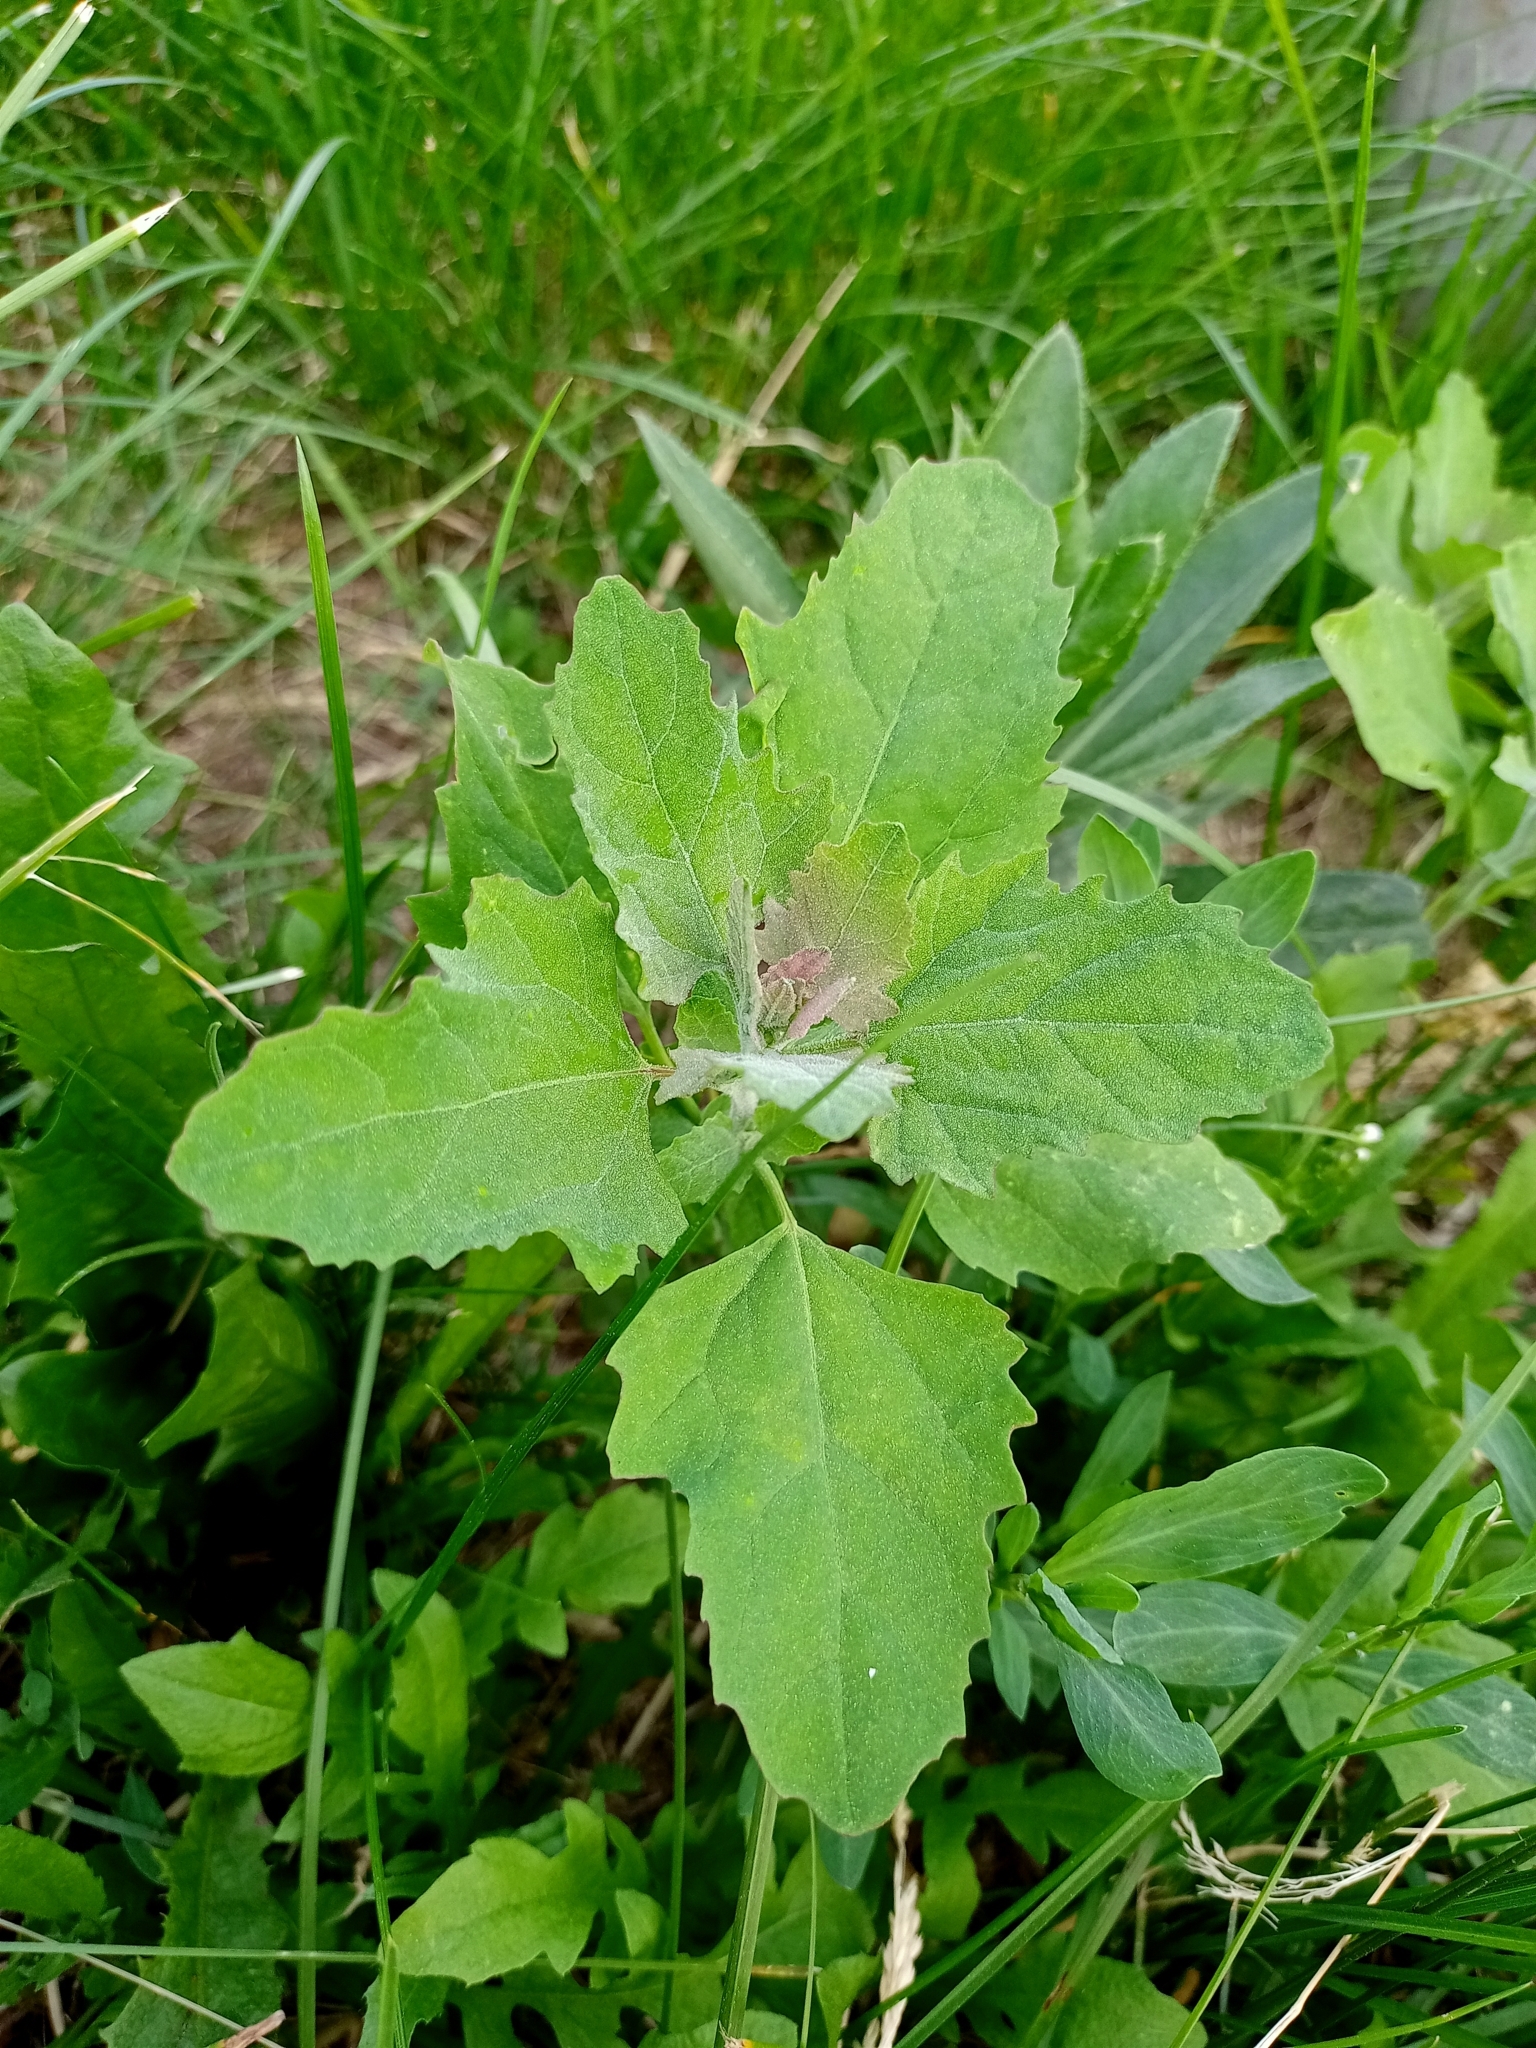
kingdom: Plantae
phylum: Tracheophyta
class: Magnoliopsida
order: Caryophyllales
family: Amaranthaceae
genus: Chenopodium
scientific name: Chenopodium album
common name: Fat-hen
